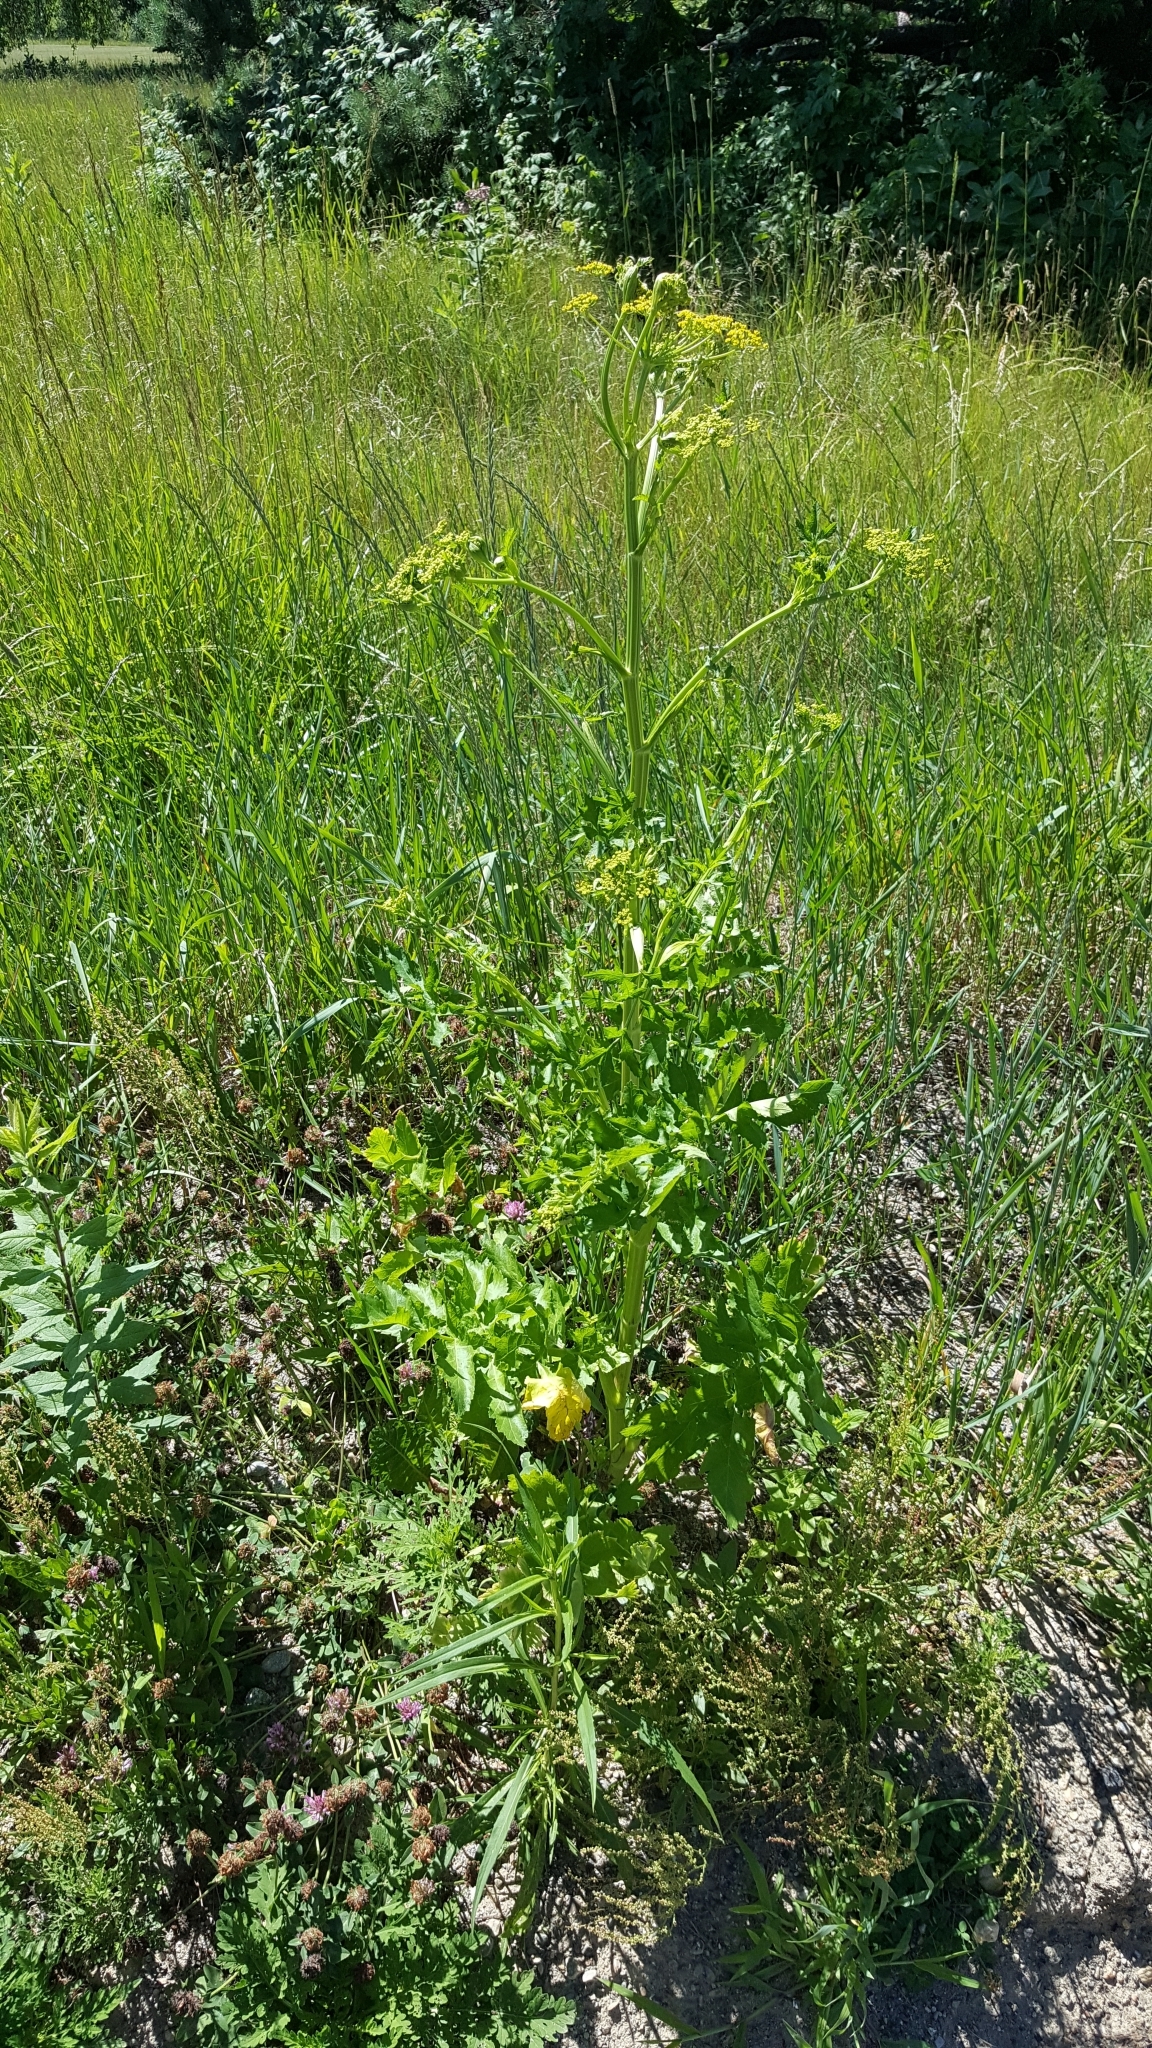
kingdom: Plantae
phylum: Tracheophyta
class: Magnoliopsida
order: Apiales
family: Apiaceae
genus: Pastinaca
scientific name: Pastinaca sativa
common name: Wild parsnip
